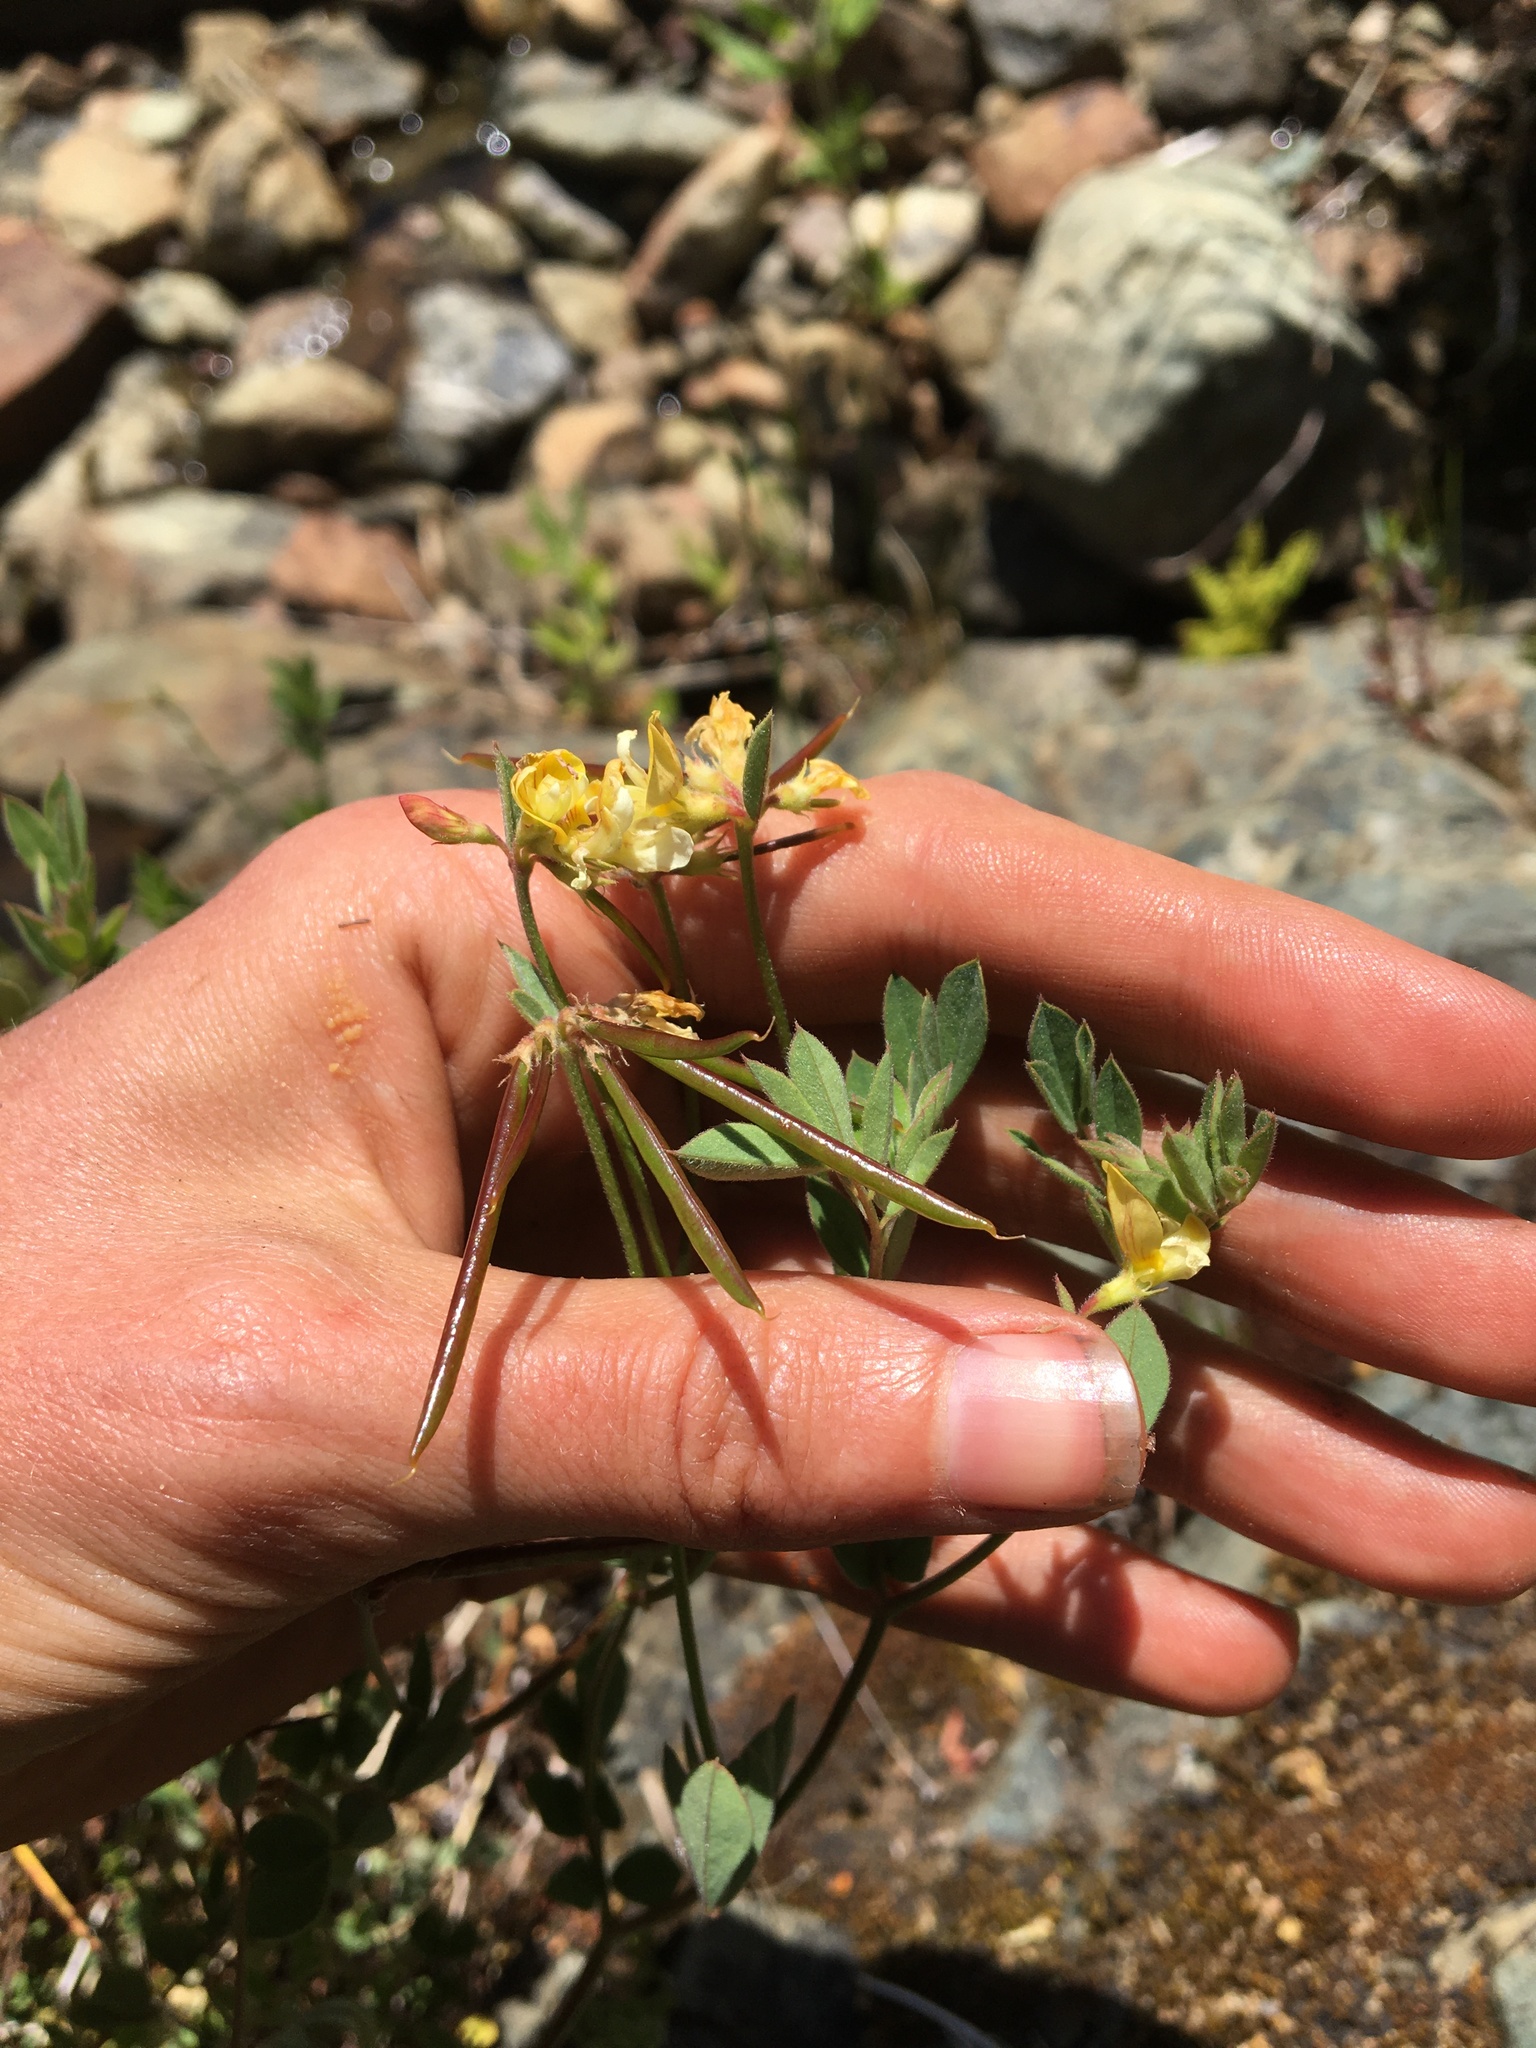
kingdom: Plantae
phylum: Tracheophyta
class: Magnoliopsida
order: Fabales
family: Fabaceae
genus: Hosackia
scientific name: Hosackia oblongifolia
